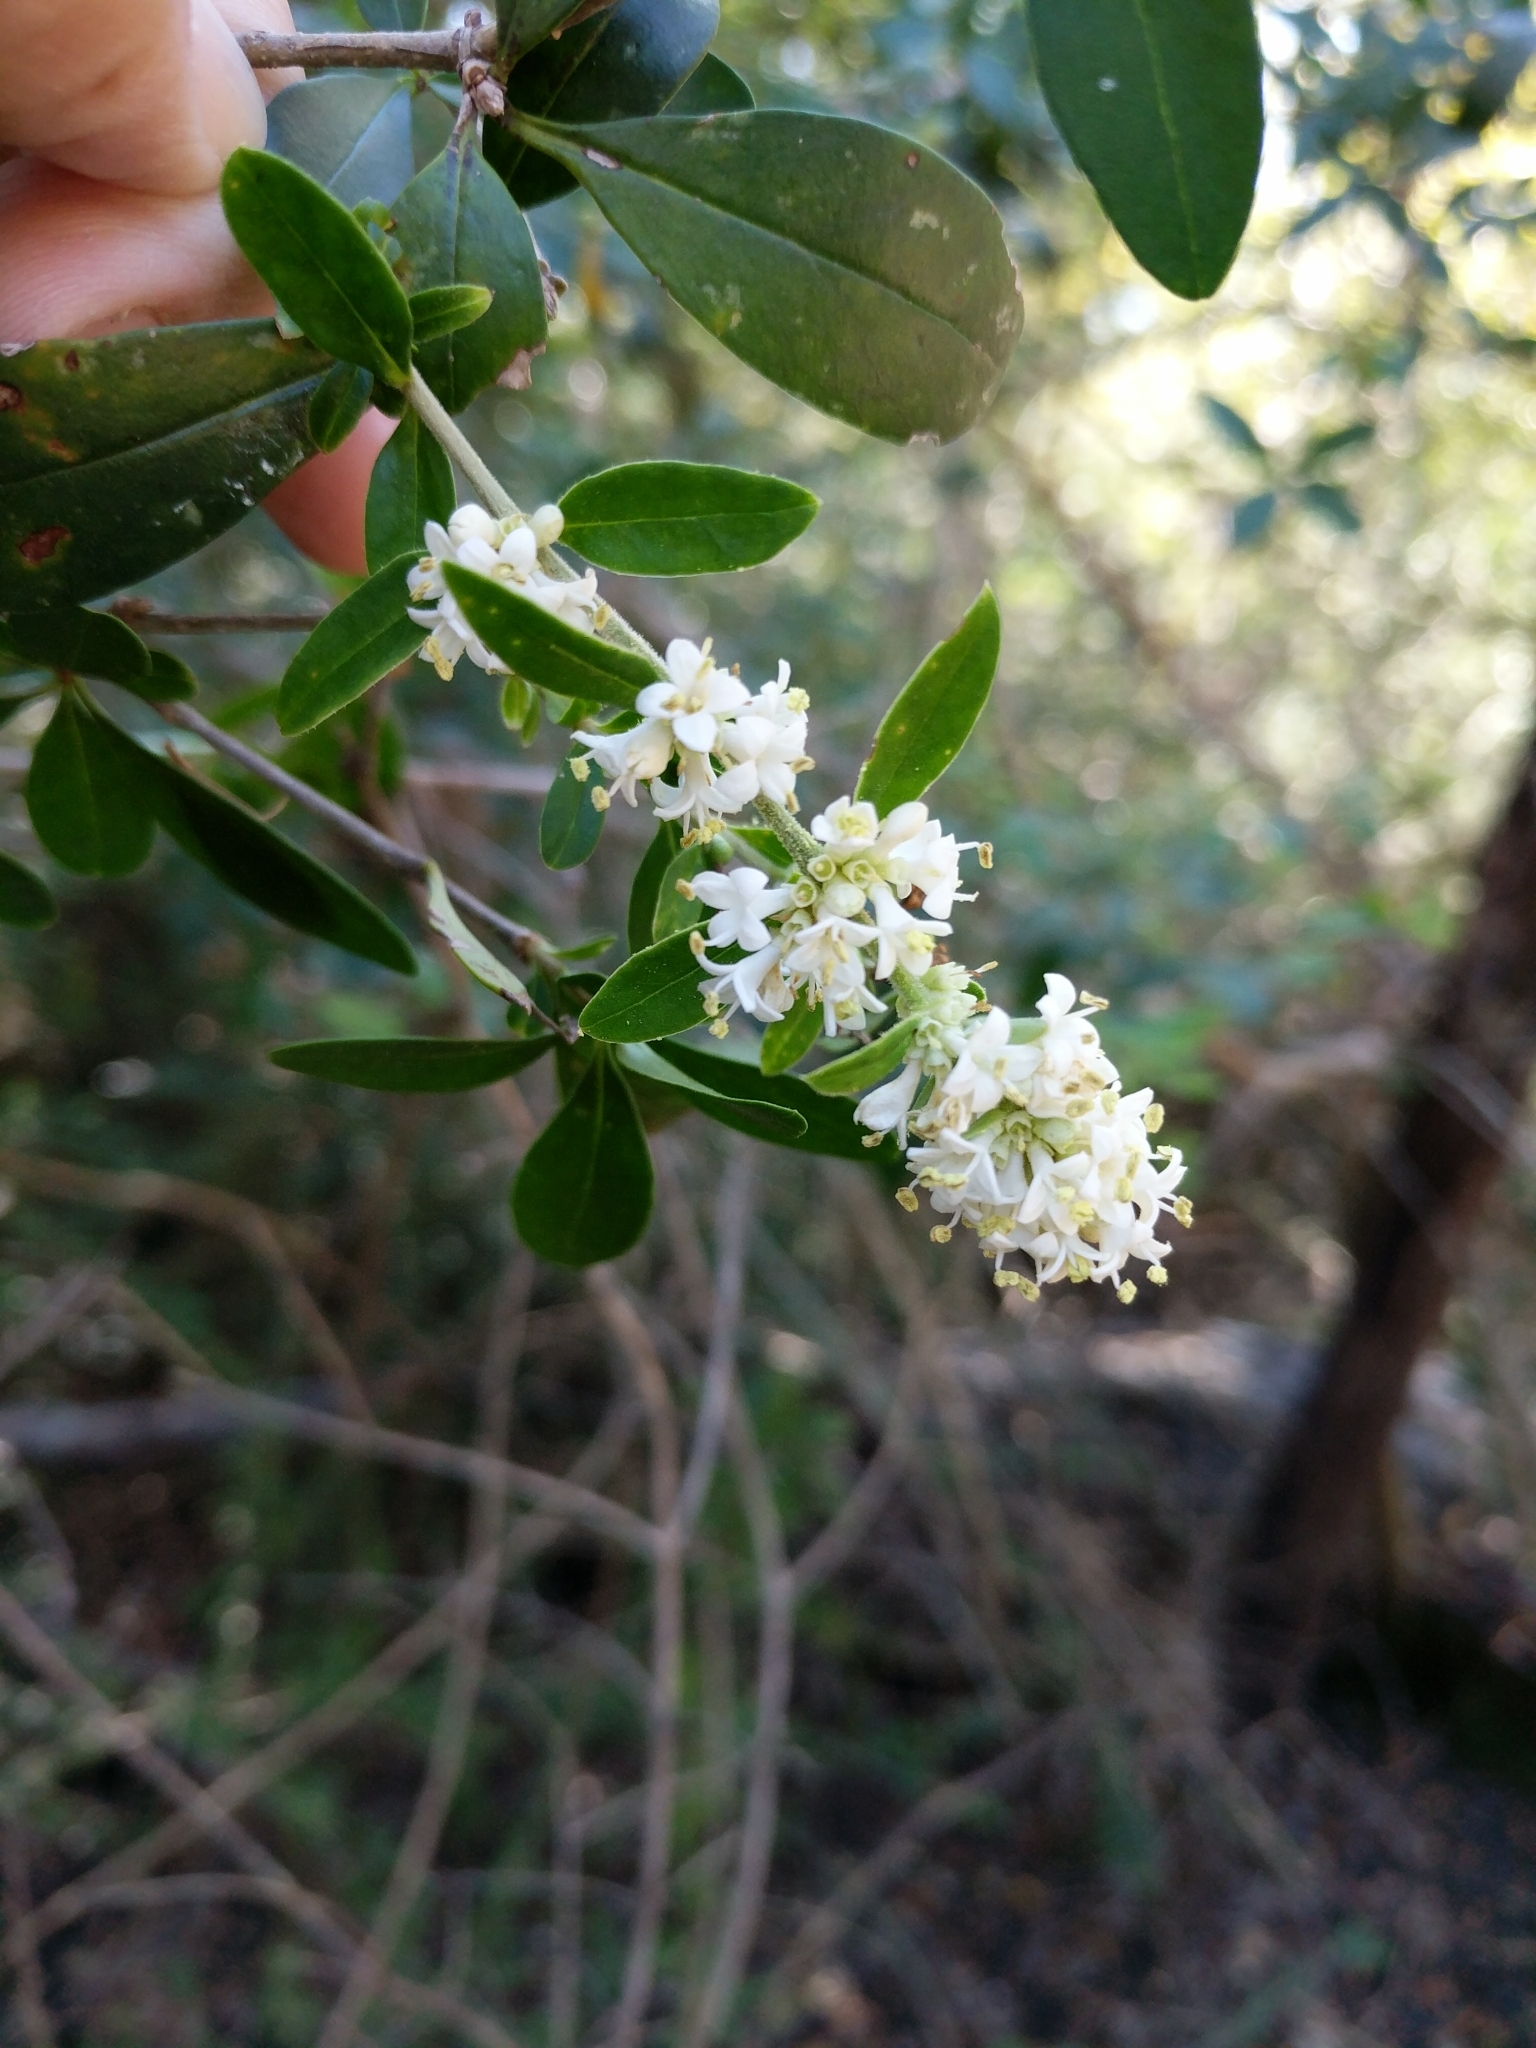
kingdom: Plantae
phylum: Tracheophyta
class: Magnoliopsida
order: Lamiales
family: Oleaceae
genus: Ligustrum
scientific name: Ligustrum quihoui
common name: Waxyleaf privet
